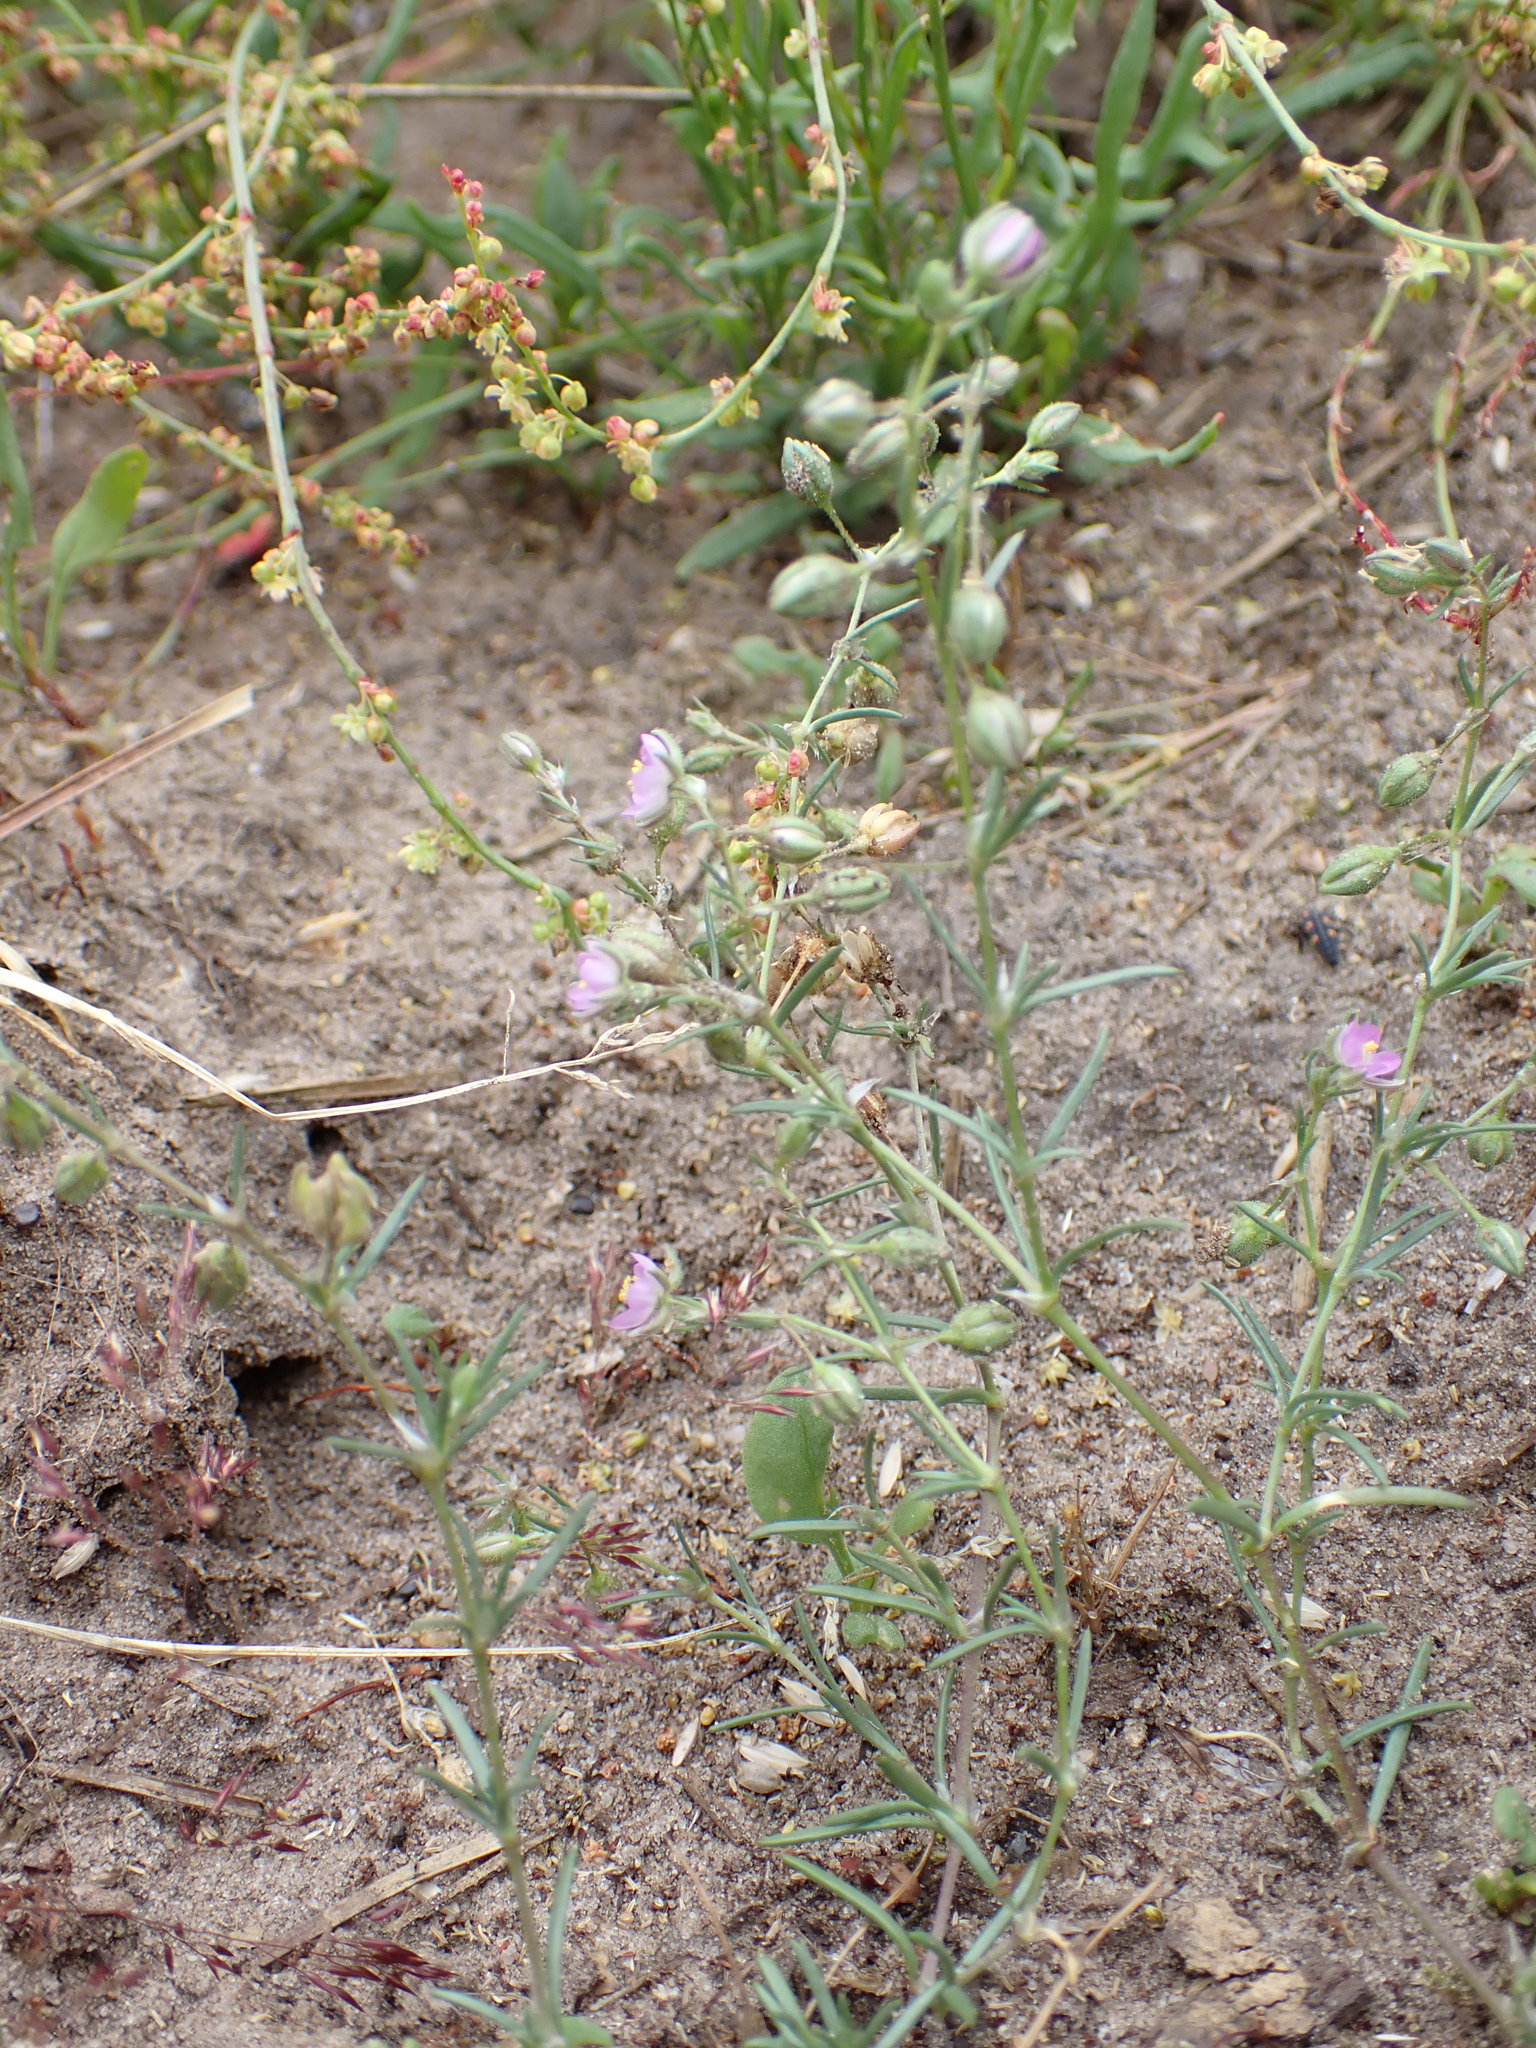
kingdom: Plantae
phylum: Tracheophyta
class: Magnoliopsida
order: Caryophyllales
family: Caryophyllaceae
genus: Spergularia
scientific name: Spergularia rubra
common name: Red sand-spurrey
